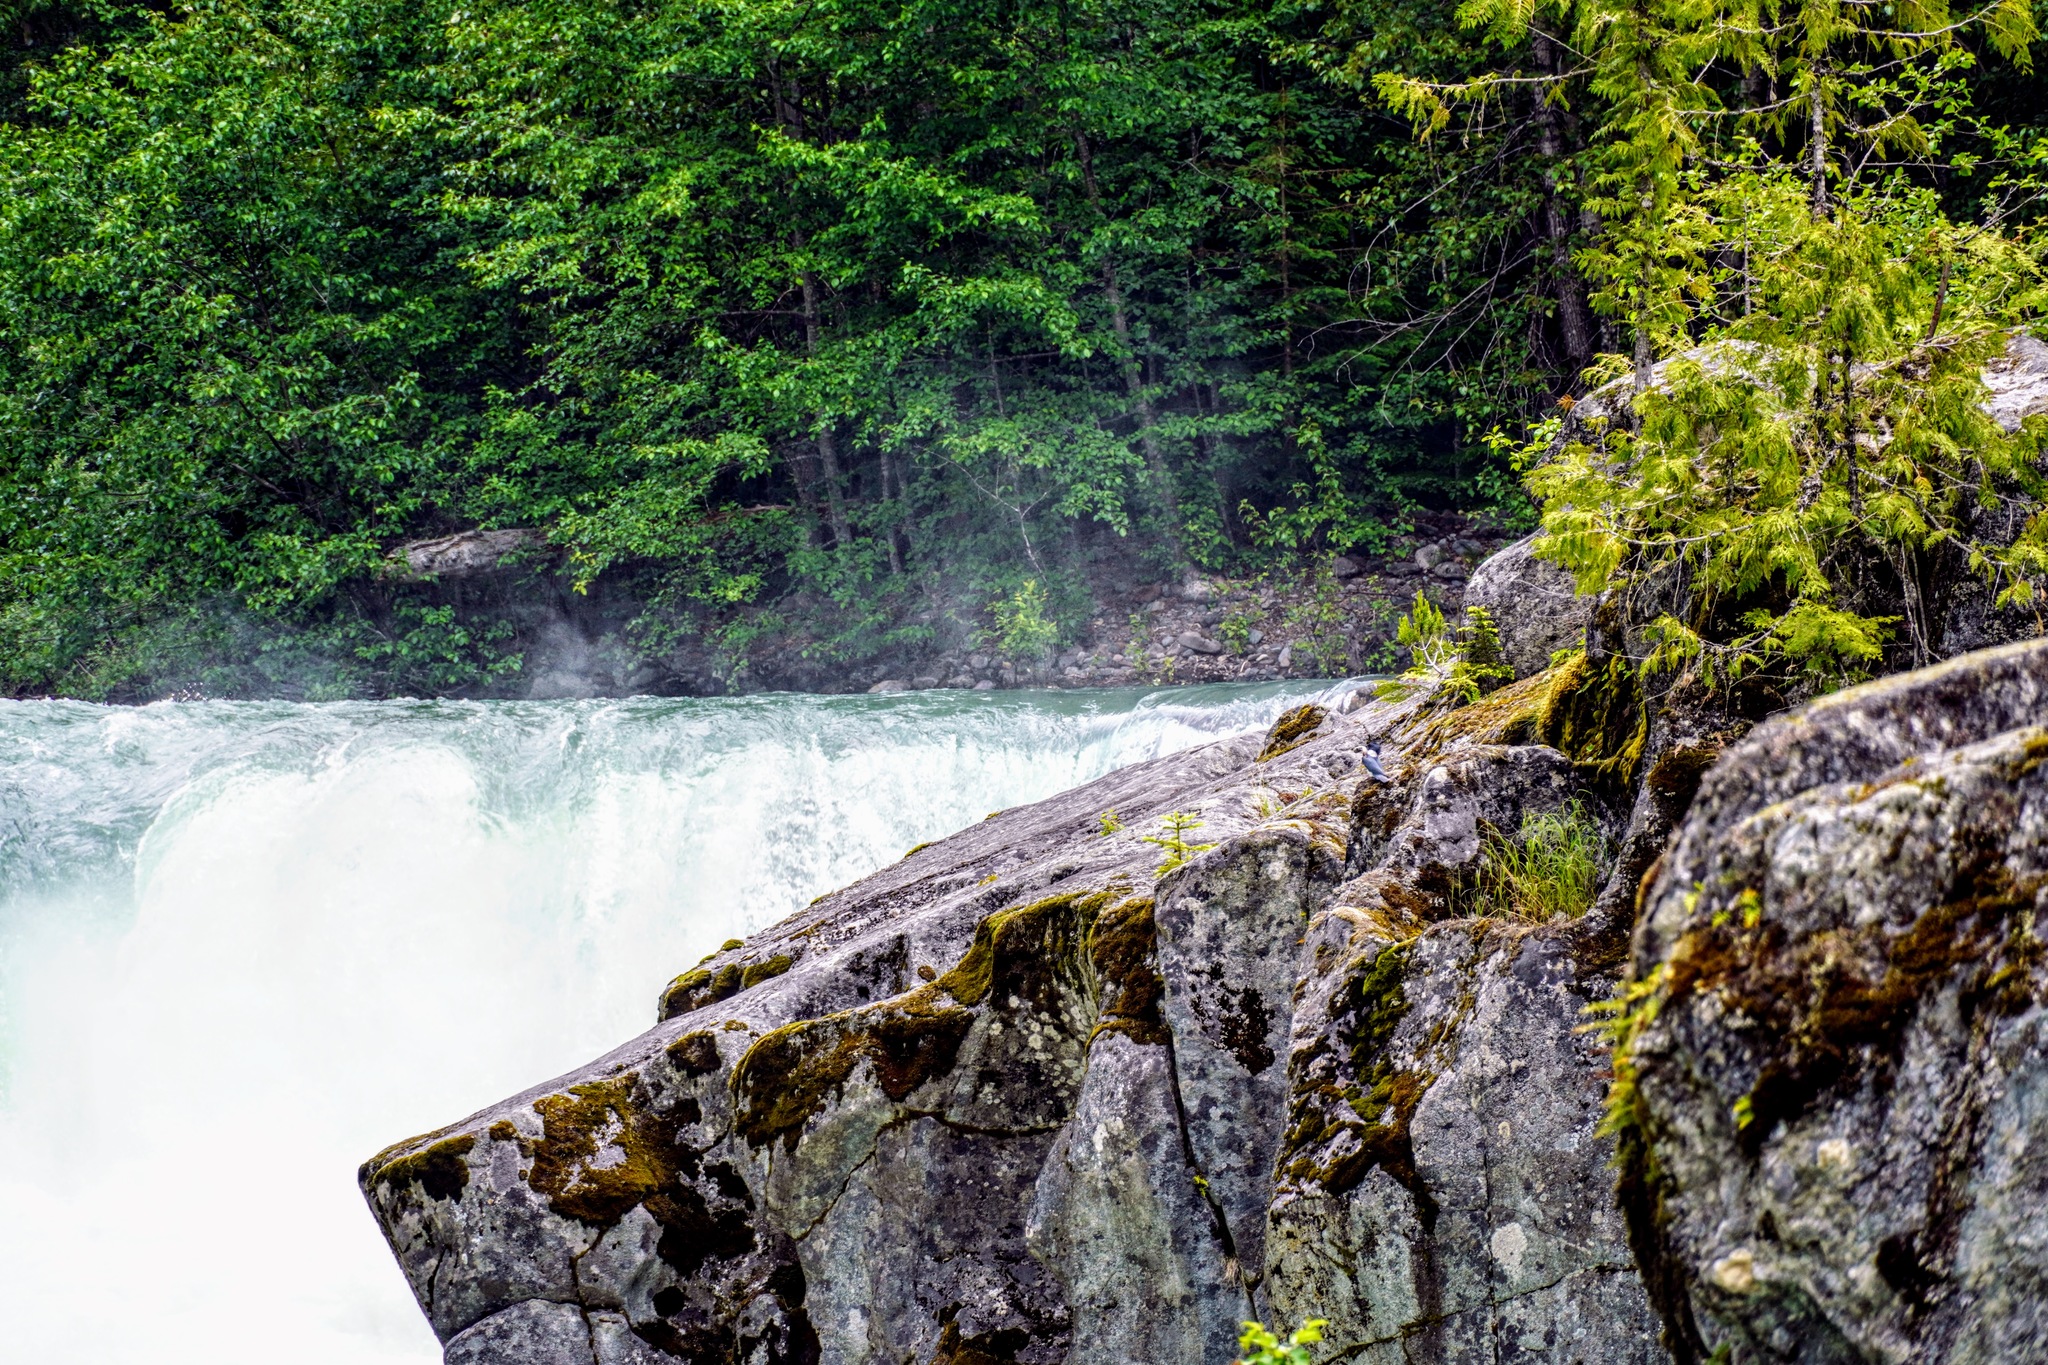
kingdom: Animalia
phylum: Chordata
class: Aves
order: Coraciiformes
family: Alcedinidae
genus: Megaceryle
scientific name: Megaceryle alcyon
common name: Belted kingfisher
